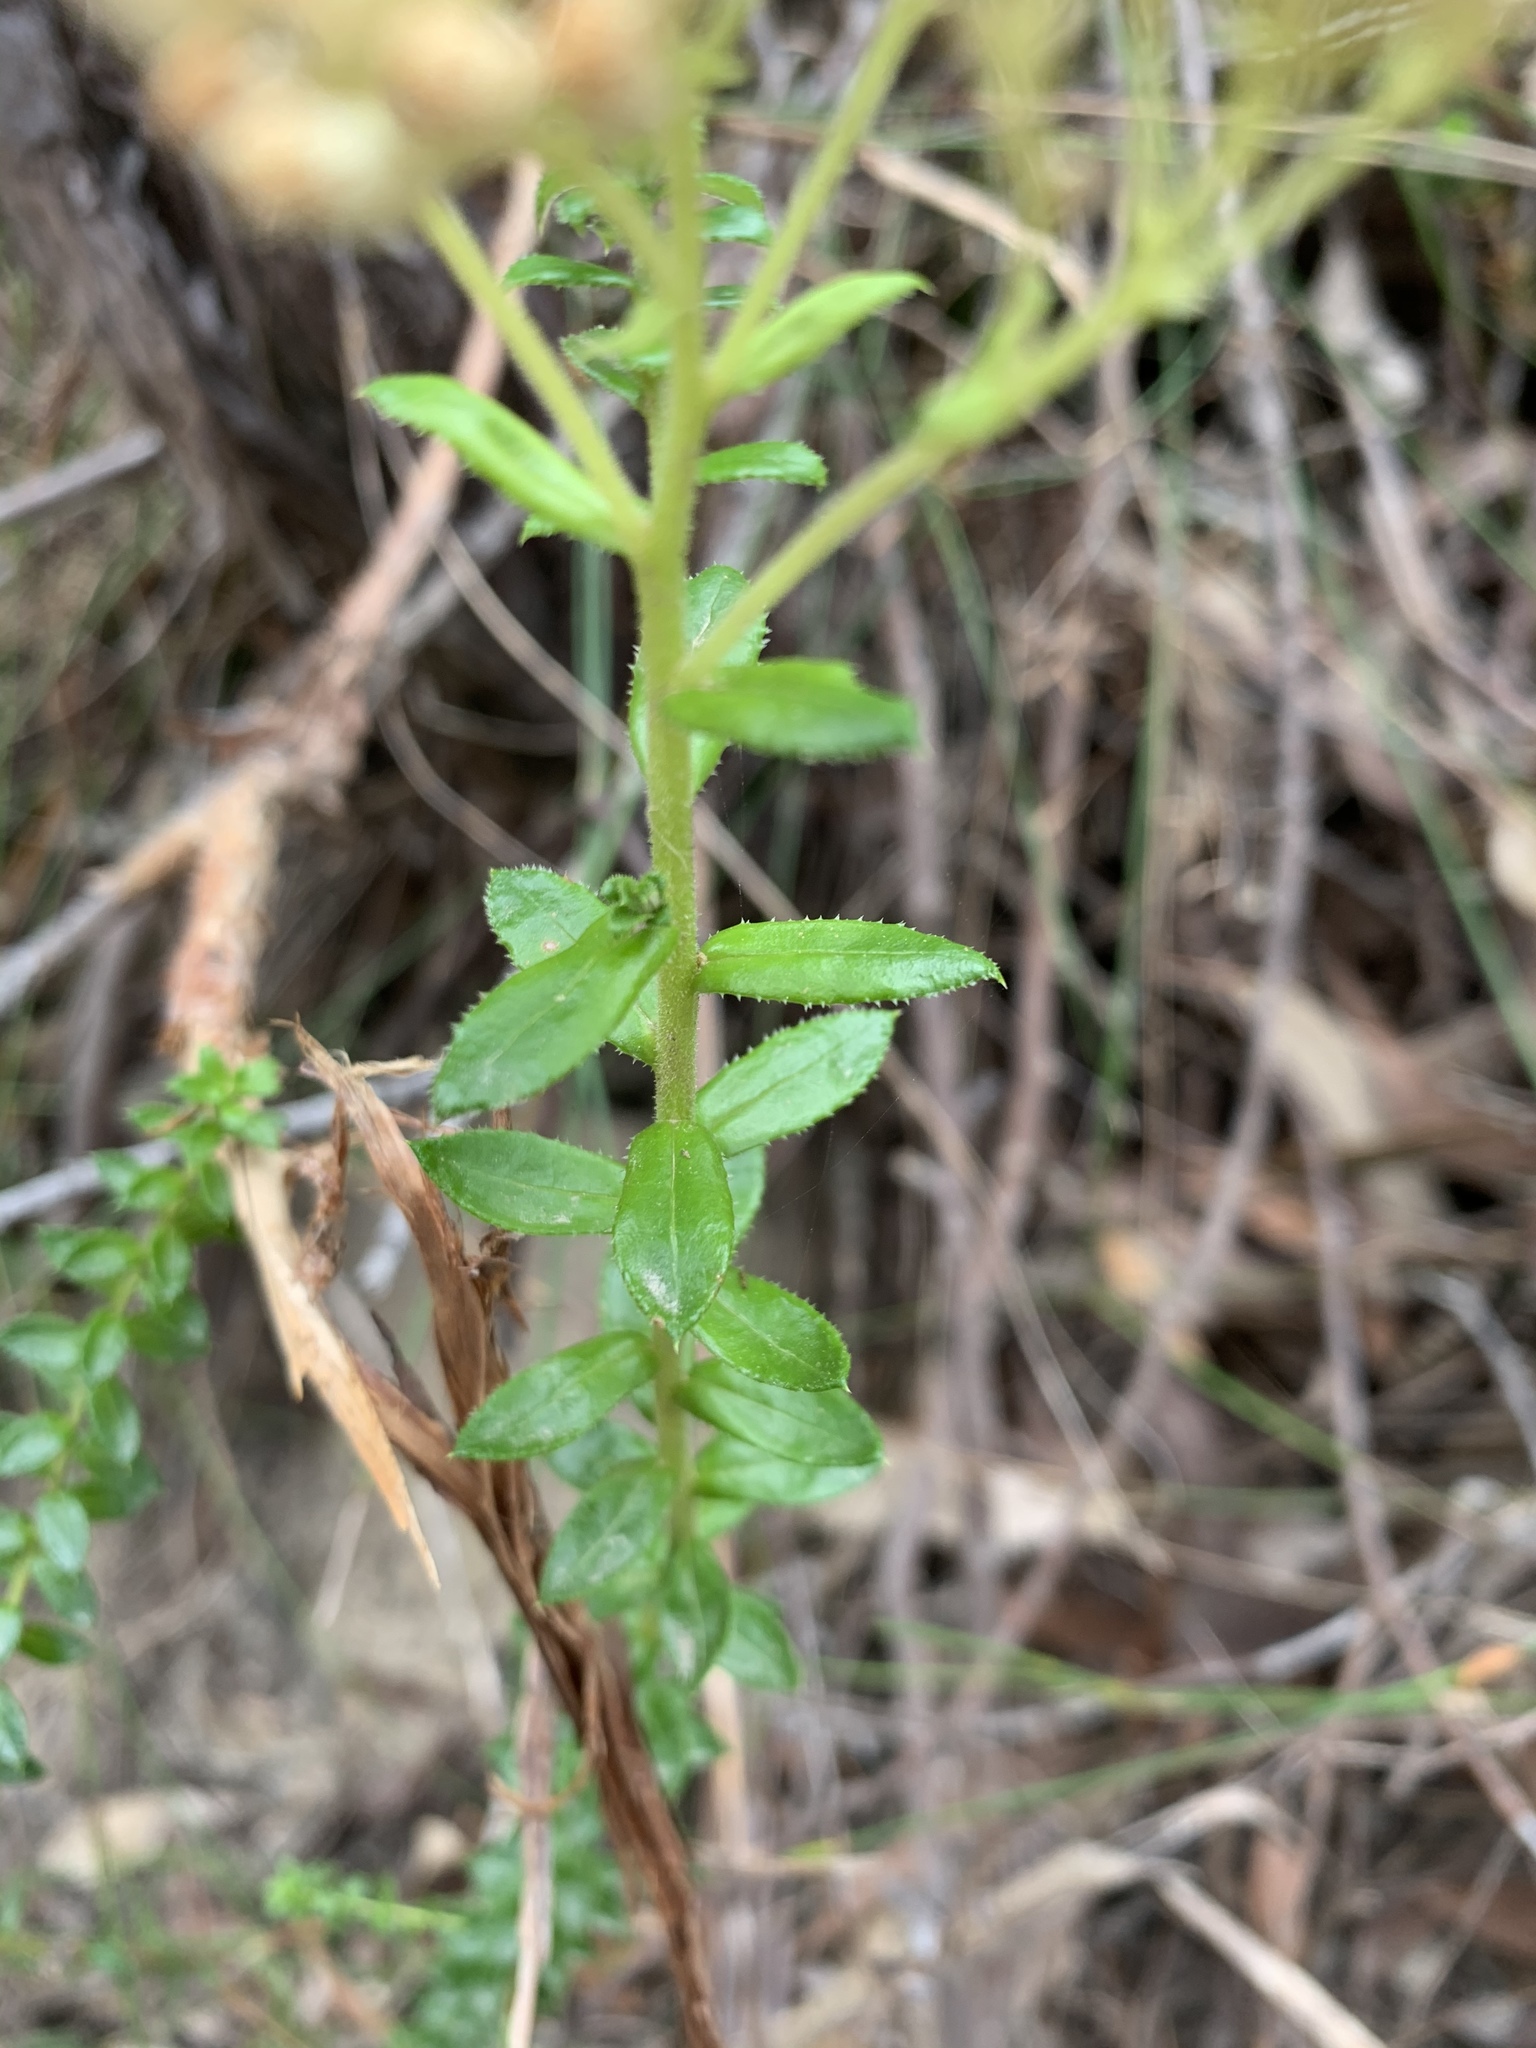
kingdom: Plantae
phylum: Tracheophyta
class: Magnoliopsida
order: Asterales
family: Asteraceae
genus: Cassinia
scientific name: Cassinia denticulata
